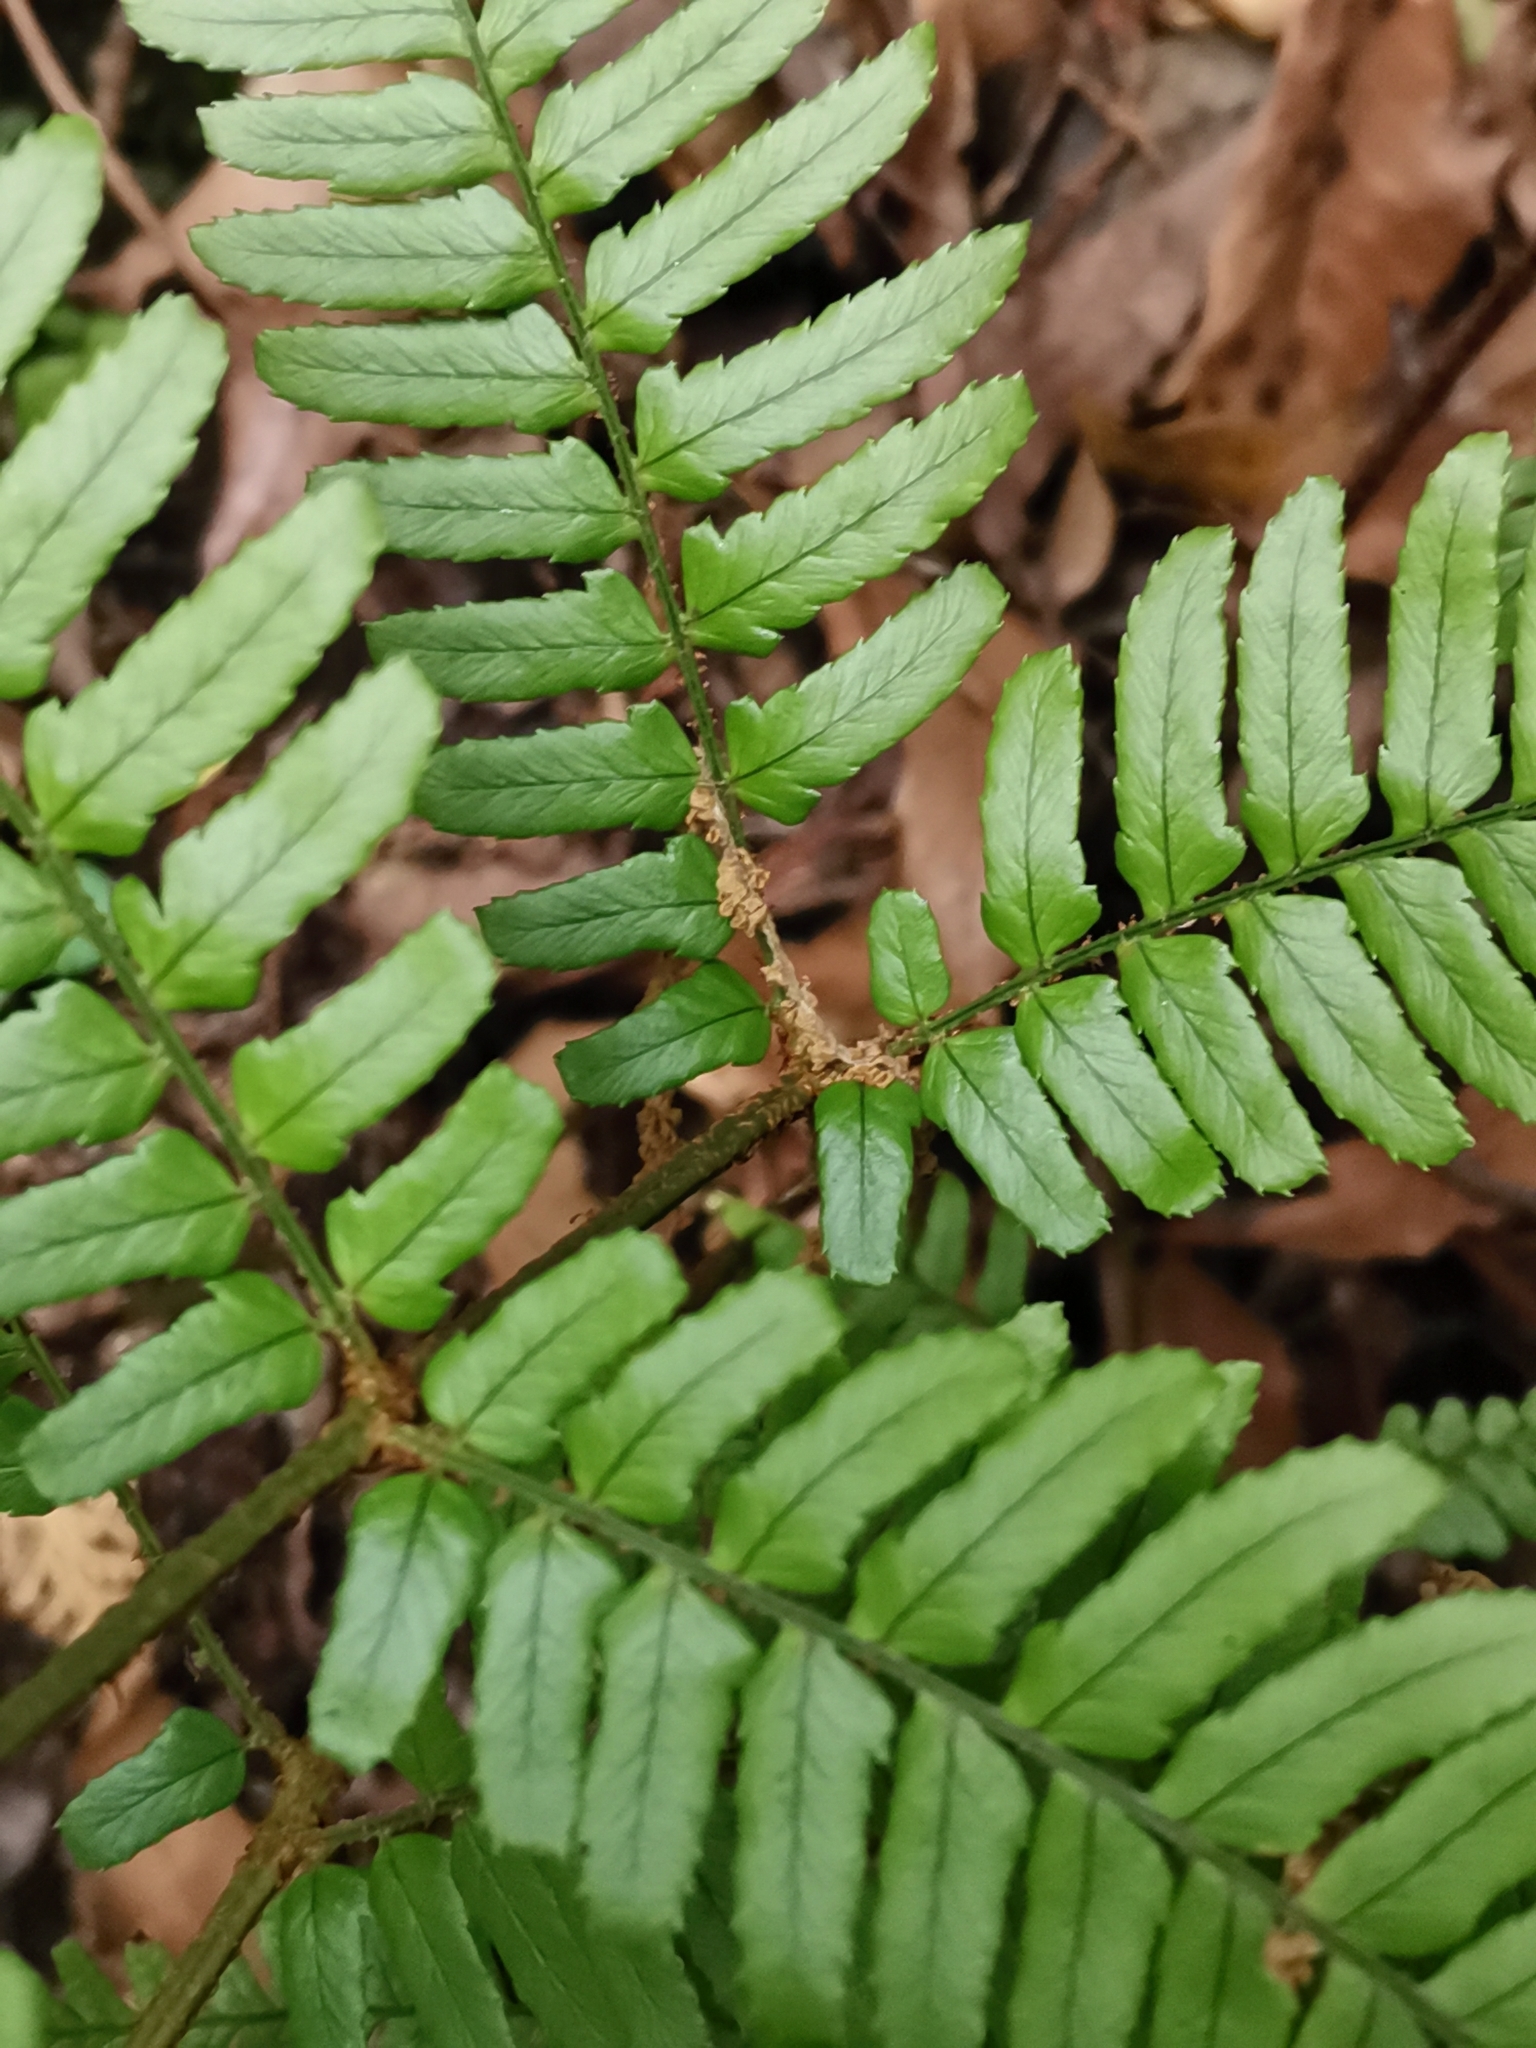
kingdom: Plantae
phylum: Tracheophyta
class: Polypodiopsida
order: Polypodiales
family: Dryopteridaceae
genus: Dryopteris
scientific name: Dryopteris erythrosora
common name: Autumn fern
